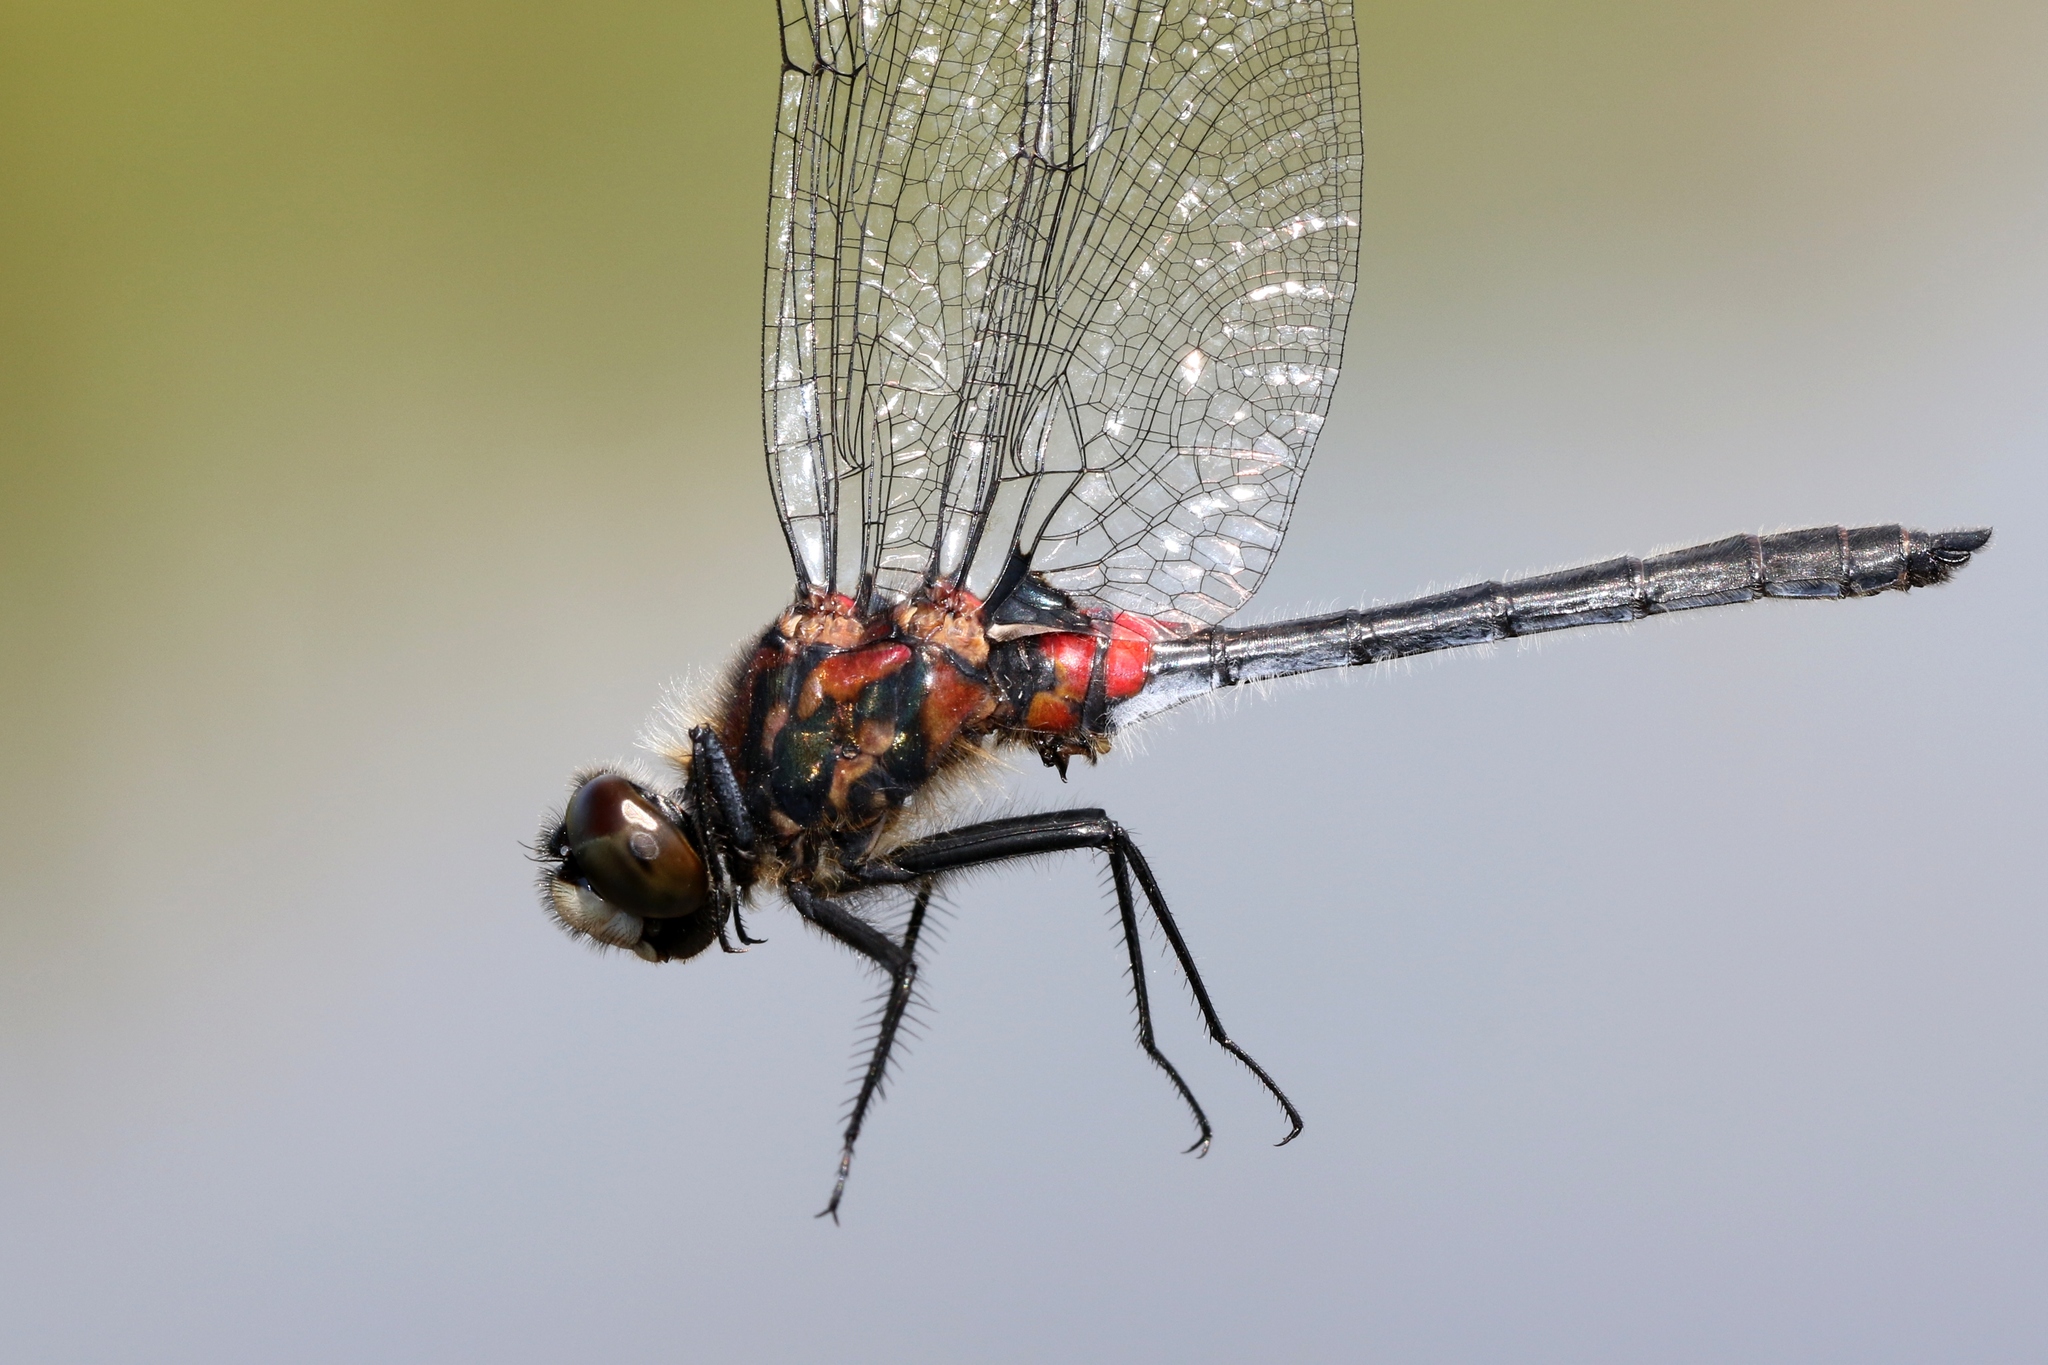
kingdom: Animalia
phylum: Arthropoda
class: Insecta
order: Odonata
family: Libellulidae
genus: Leucorrhinia
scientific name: Leucorrhinia glacialis
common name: Crimson-ringed whiteface
